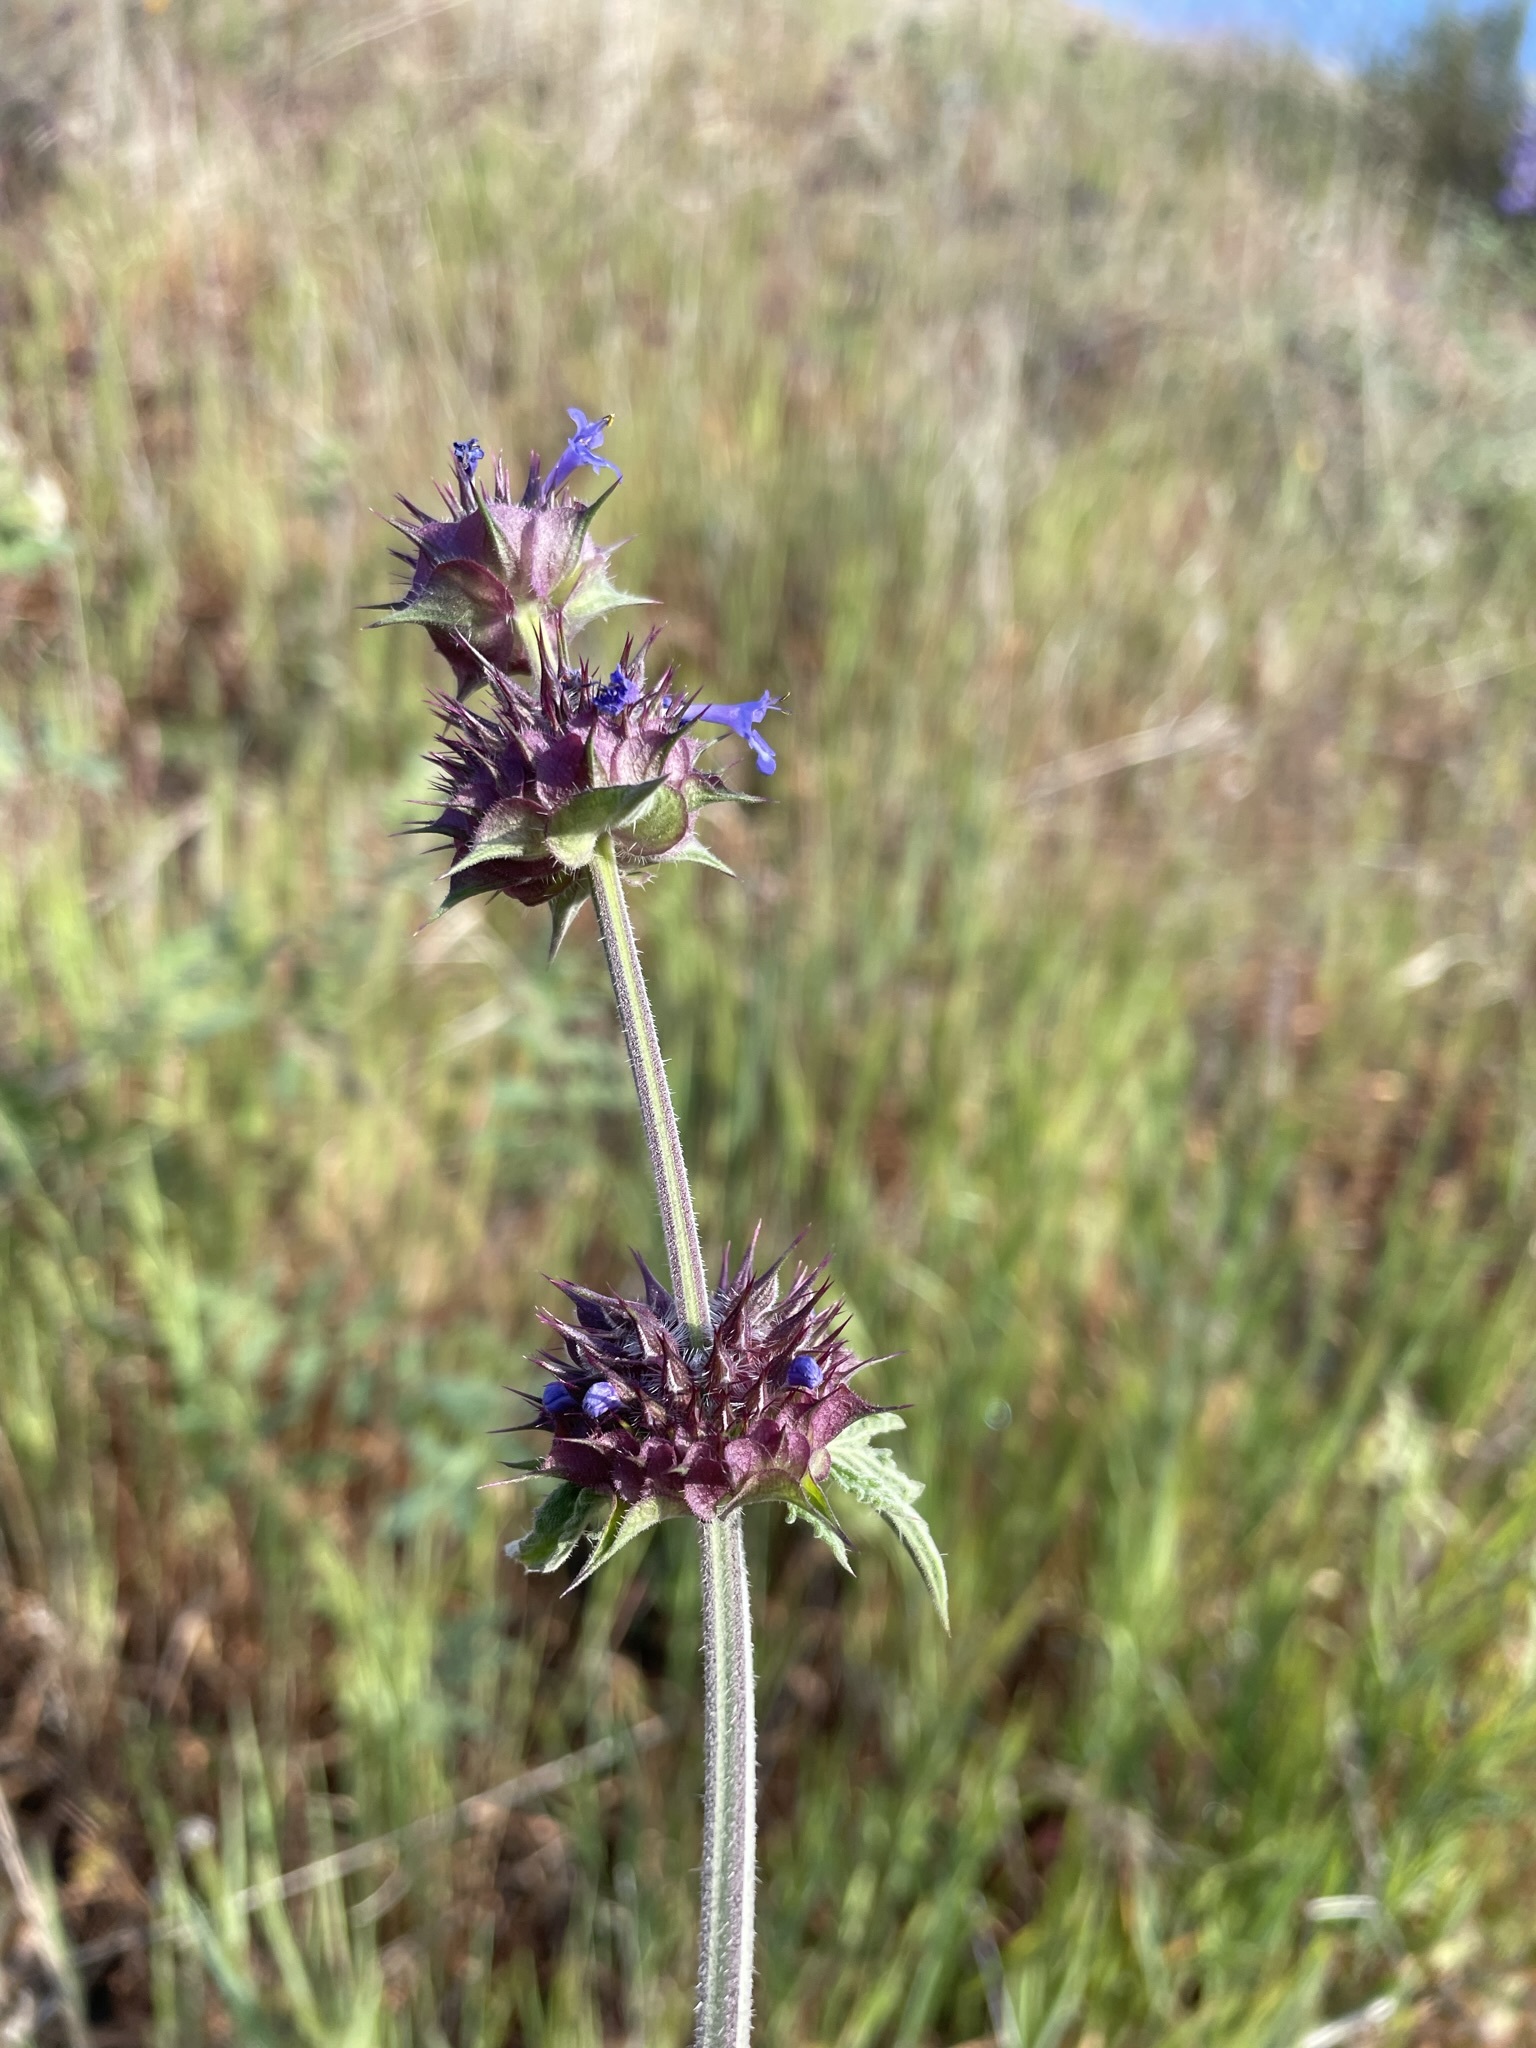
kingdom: Plantae
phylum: Tracheophyta
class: Magnoliopsida
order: Lamiales
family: Lamiaceae
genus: Salvia
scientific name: Salvia columbariae
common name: Chia
